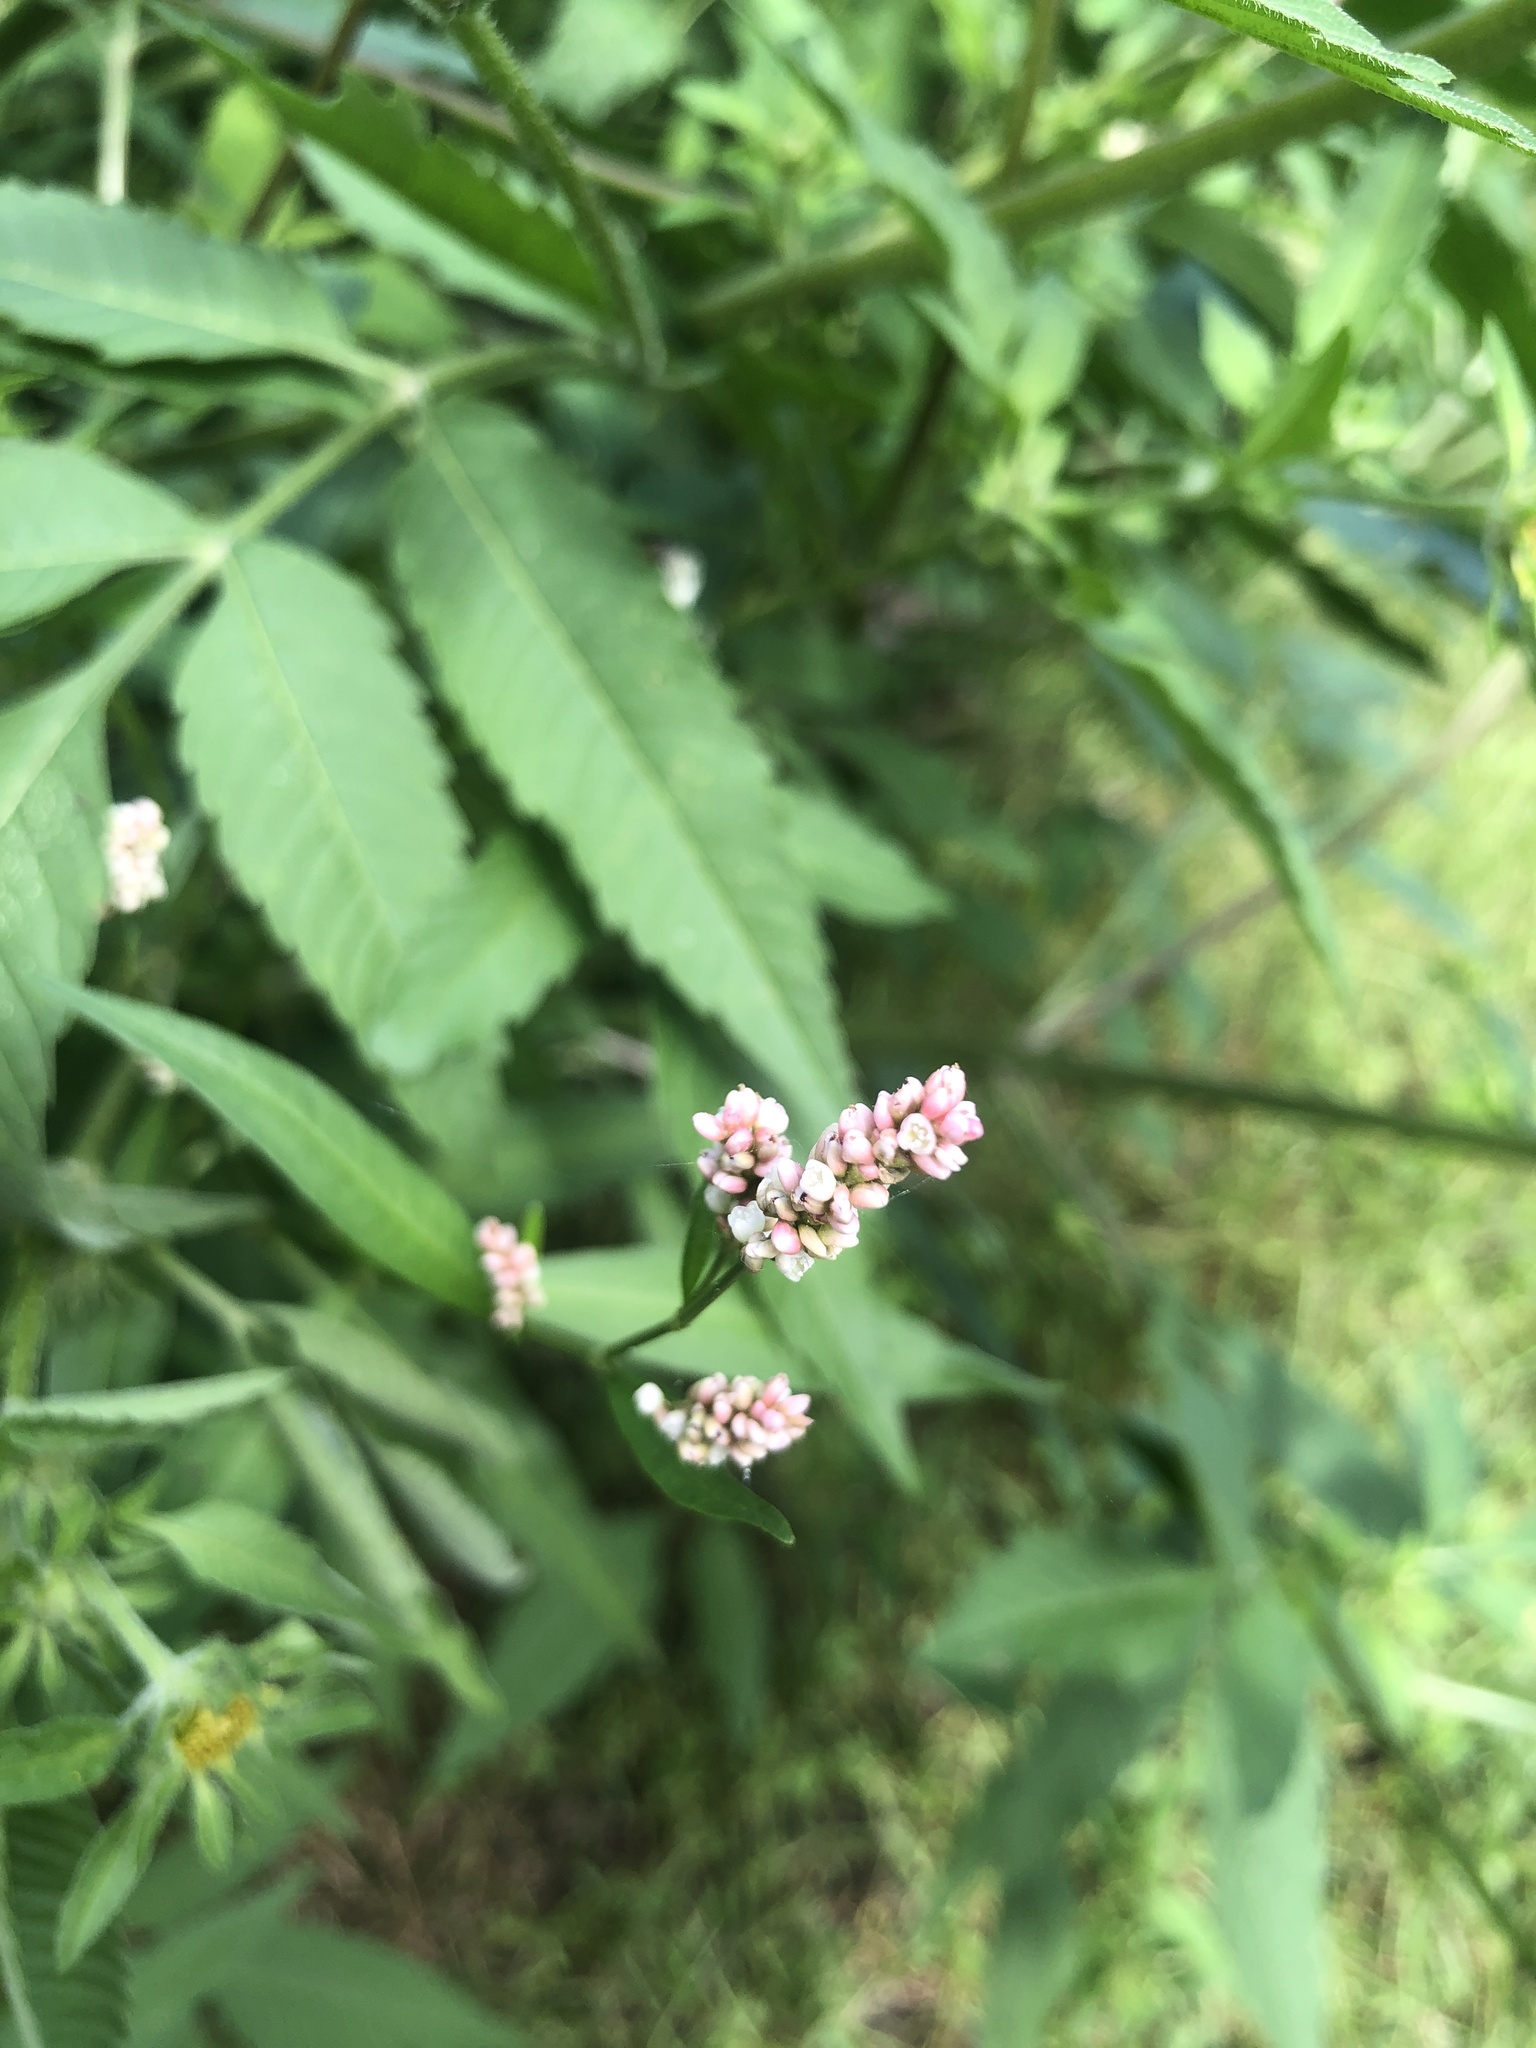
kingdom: Plantae
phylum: Tracheophyta
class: Magnoliopsida
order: Caryophyllales
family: Polygonaceae
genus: Persicaria
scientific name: Persicaria maculosa
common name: Redshank
